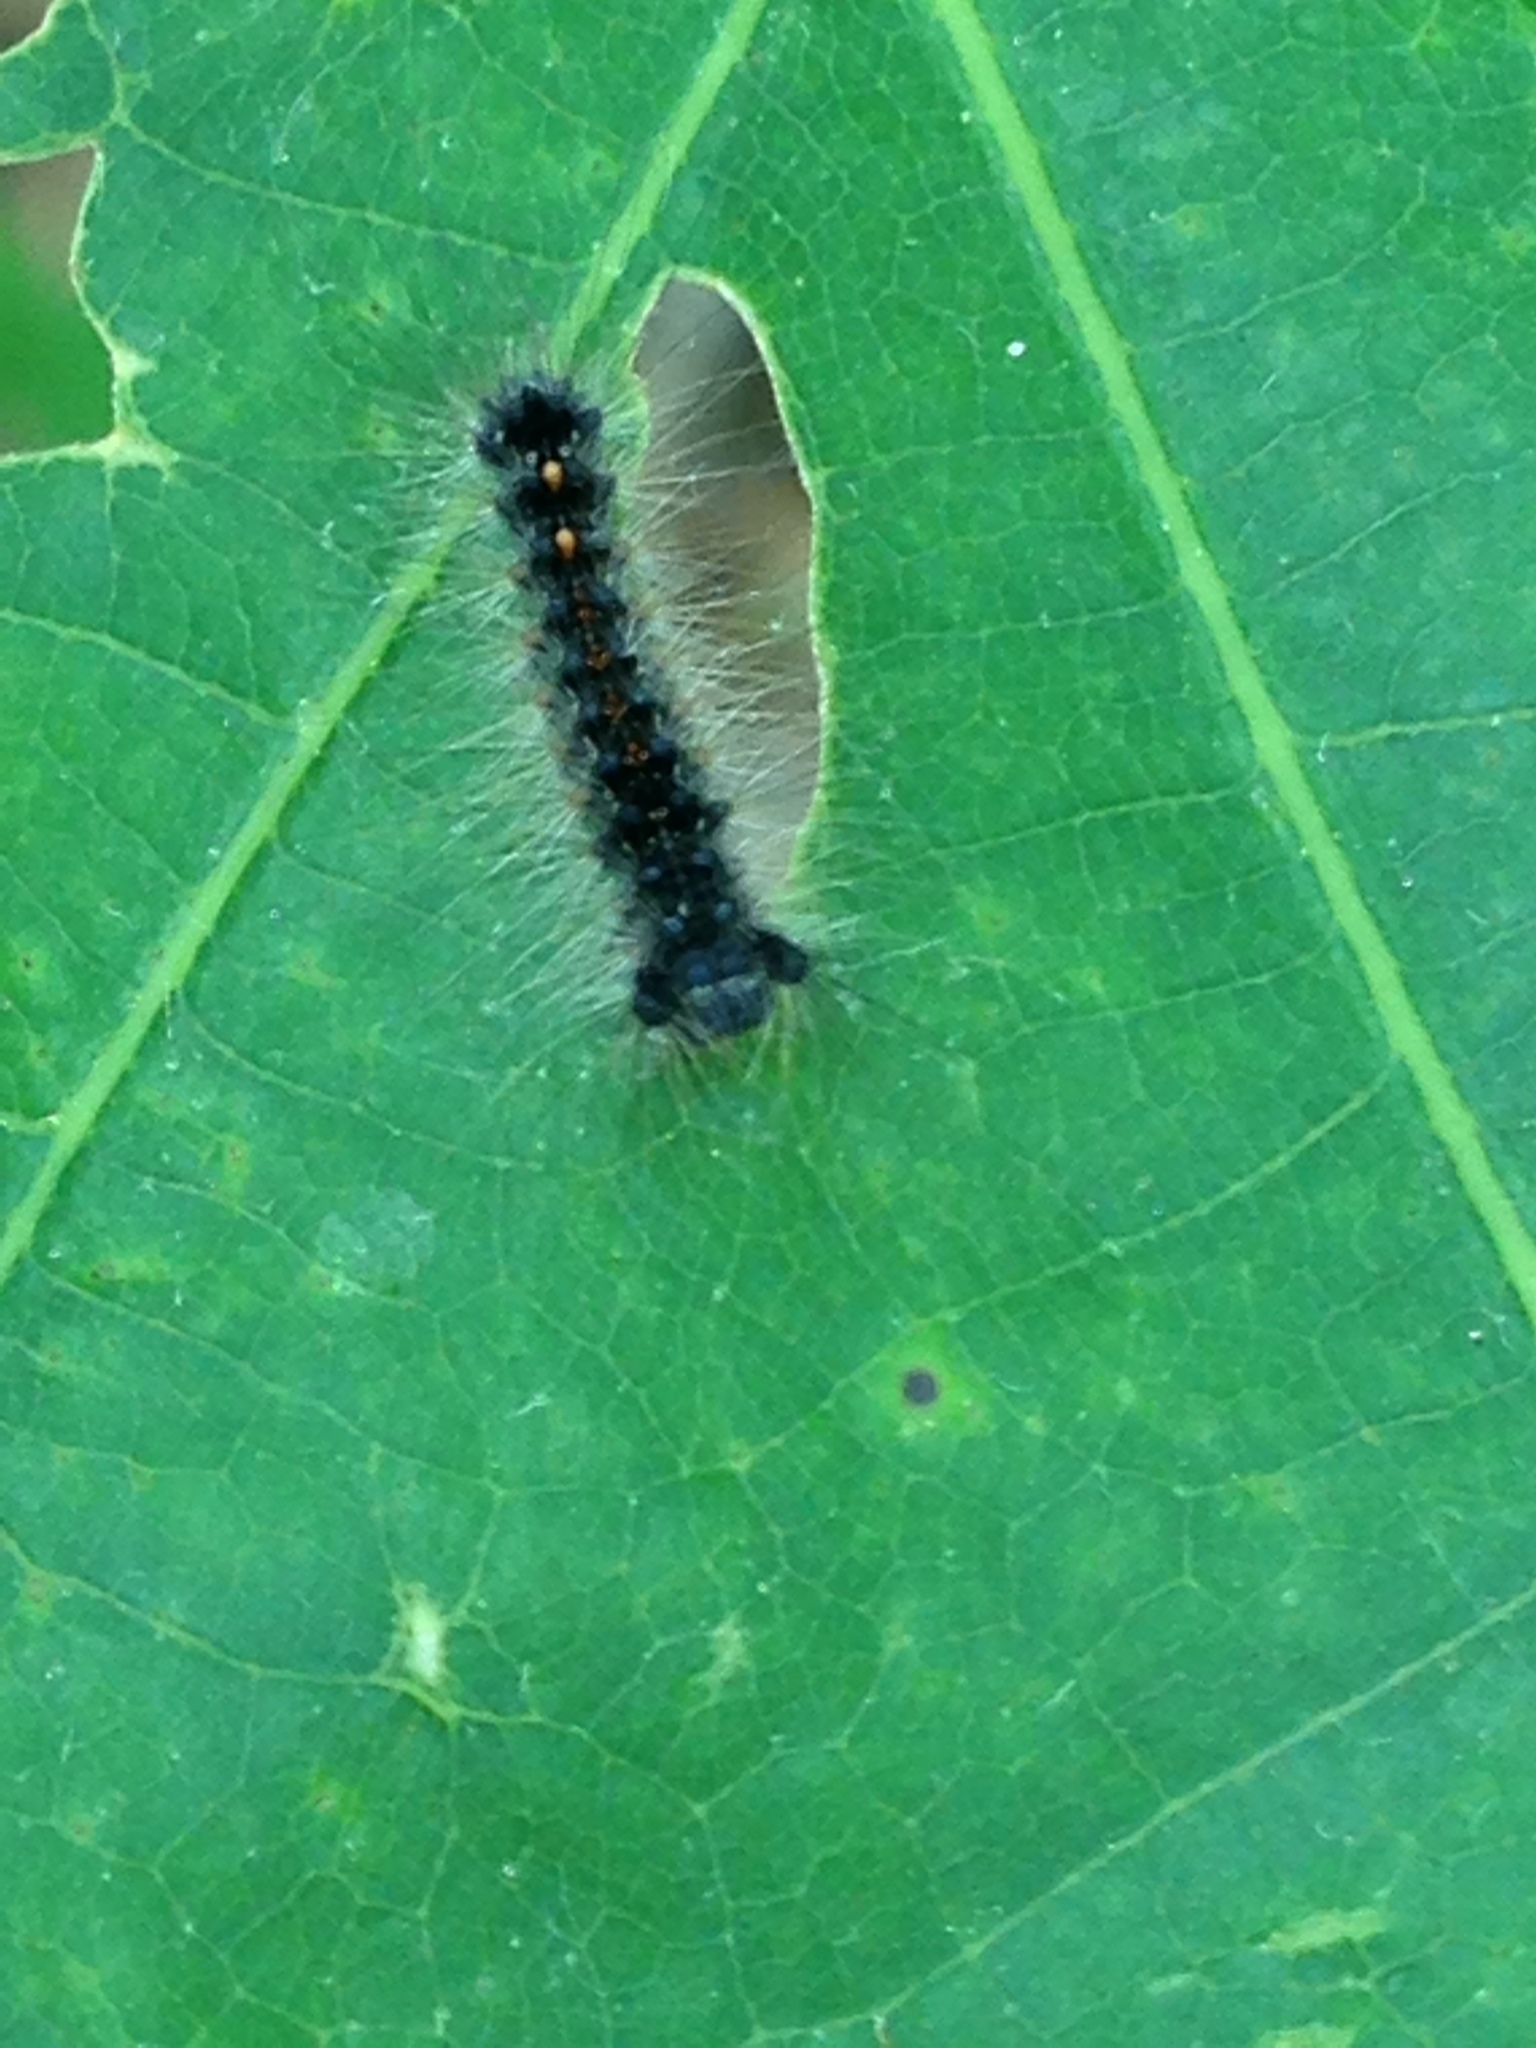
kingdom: Animalia
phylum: Arthropoda
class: Insecta
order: Lepidoptera
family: Erebidae
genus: Lymantria
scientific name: Lymantria dispar
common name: Gypsy moth
